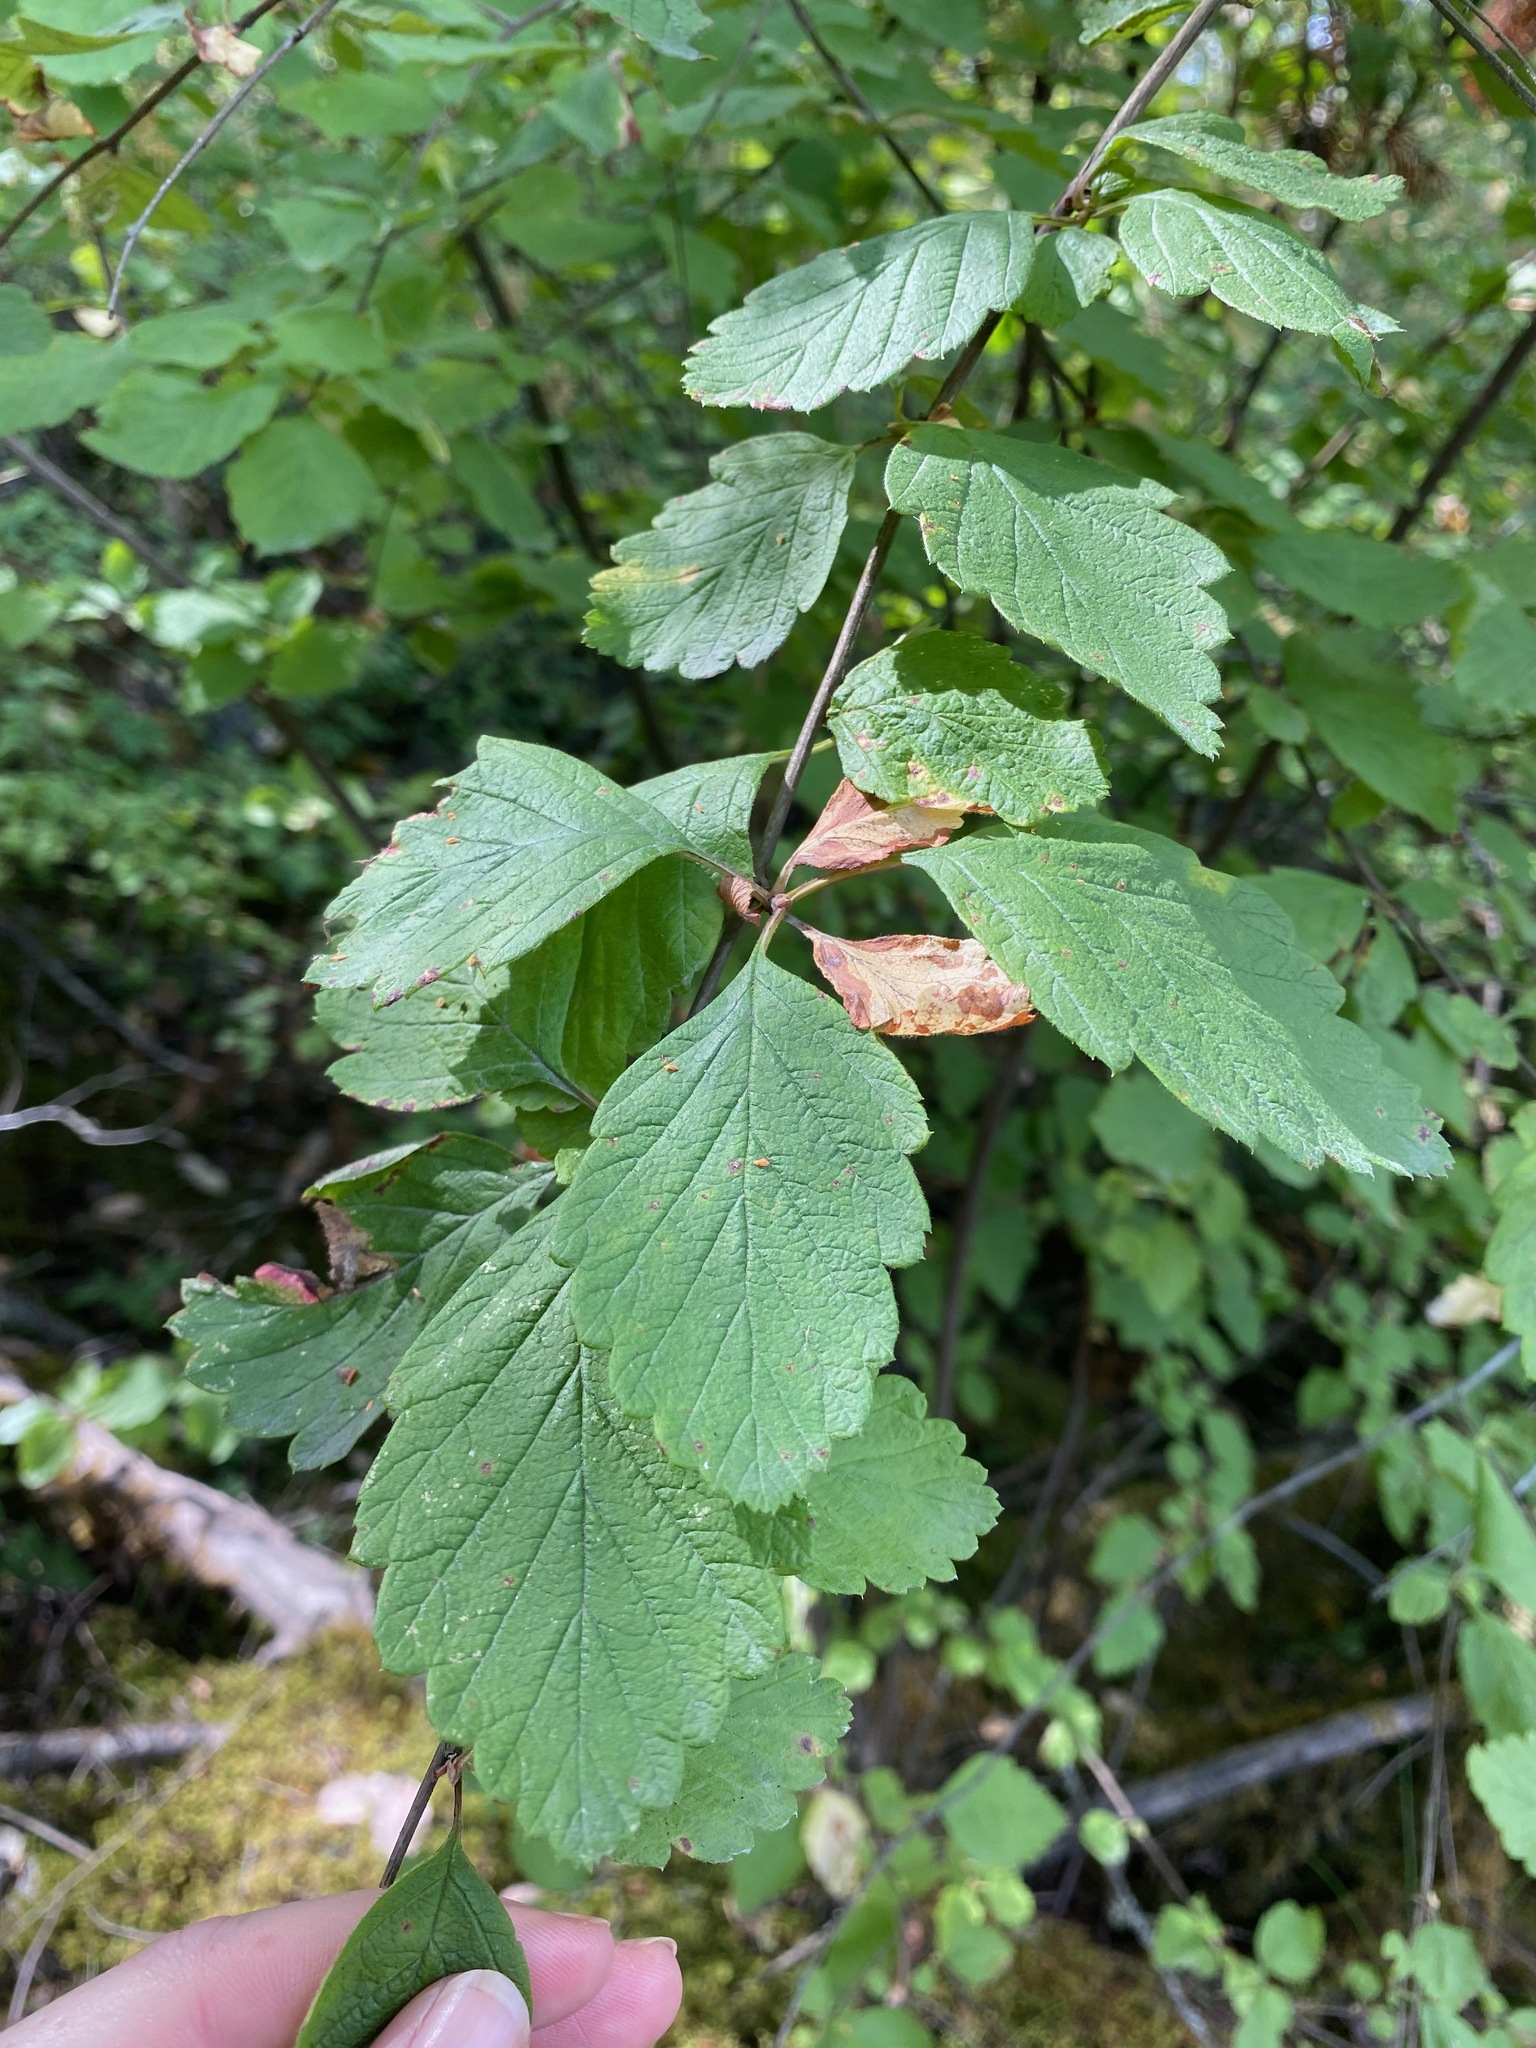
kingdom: Plantae
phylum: Tracheophyta
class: Magnoliopsida
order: Rosales
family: Rosaceae
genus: Holodiscus
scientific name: Holodiscus discolor
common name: Oceanspray
